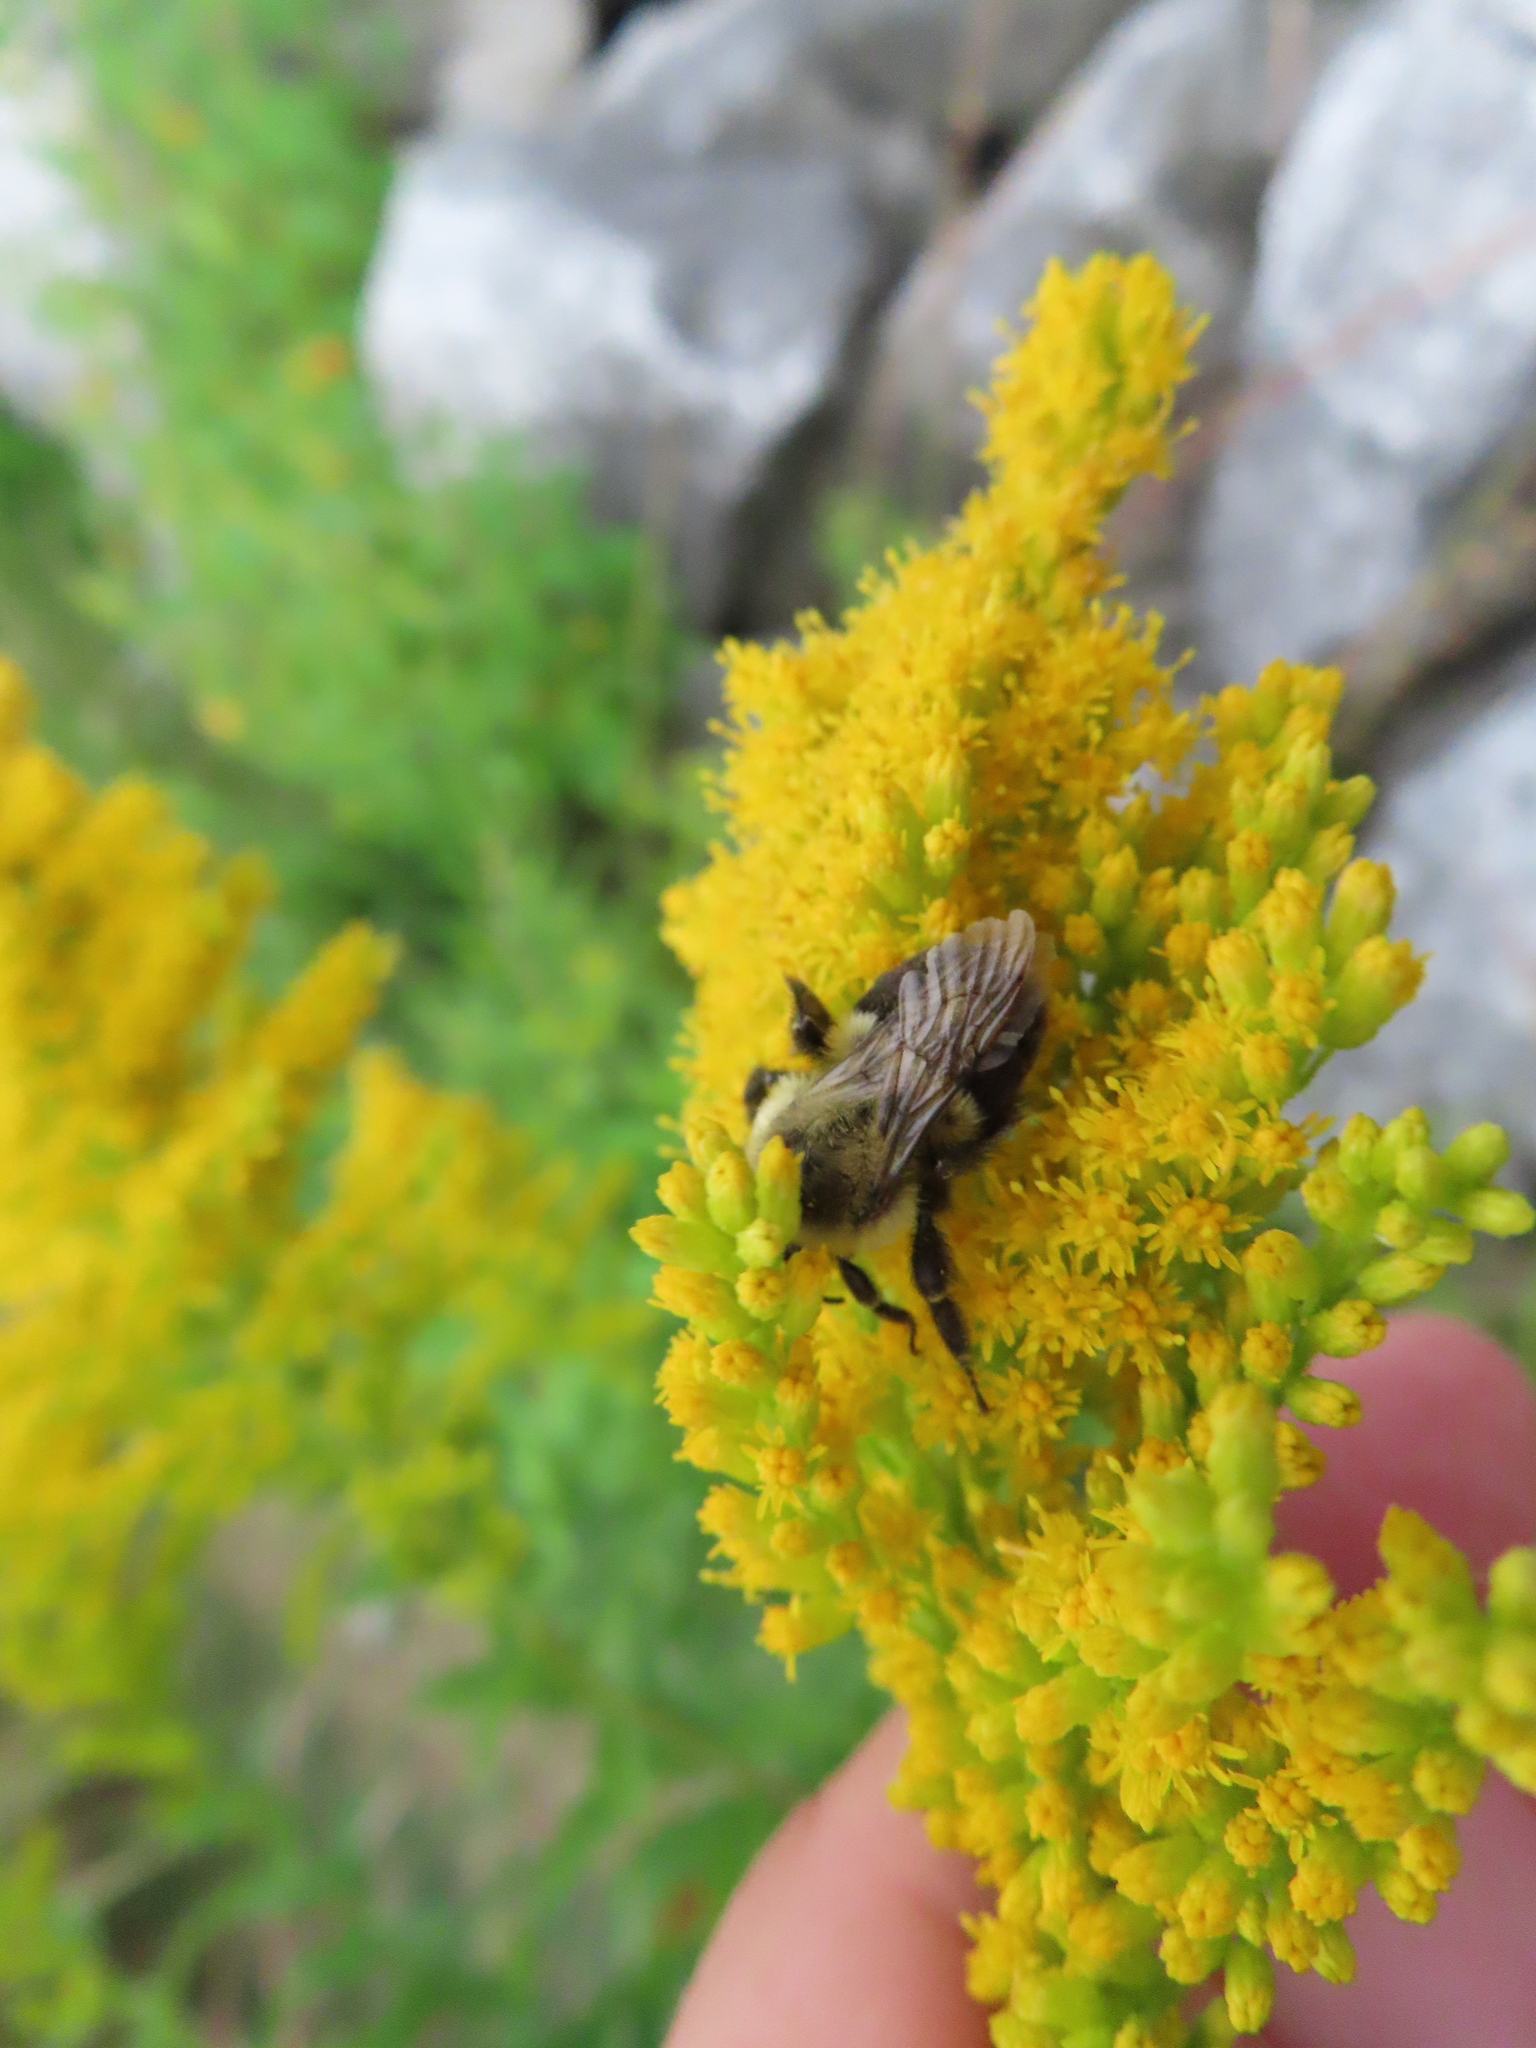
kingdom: Animalia
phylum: Arthropoda
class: Insecta
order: Hymenoptera
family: Apidae
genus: Bombus
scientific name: Bombus impatiens
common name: Common eastern bumble bee
